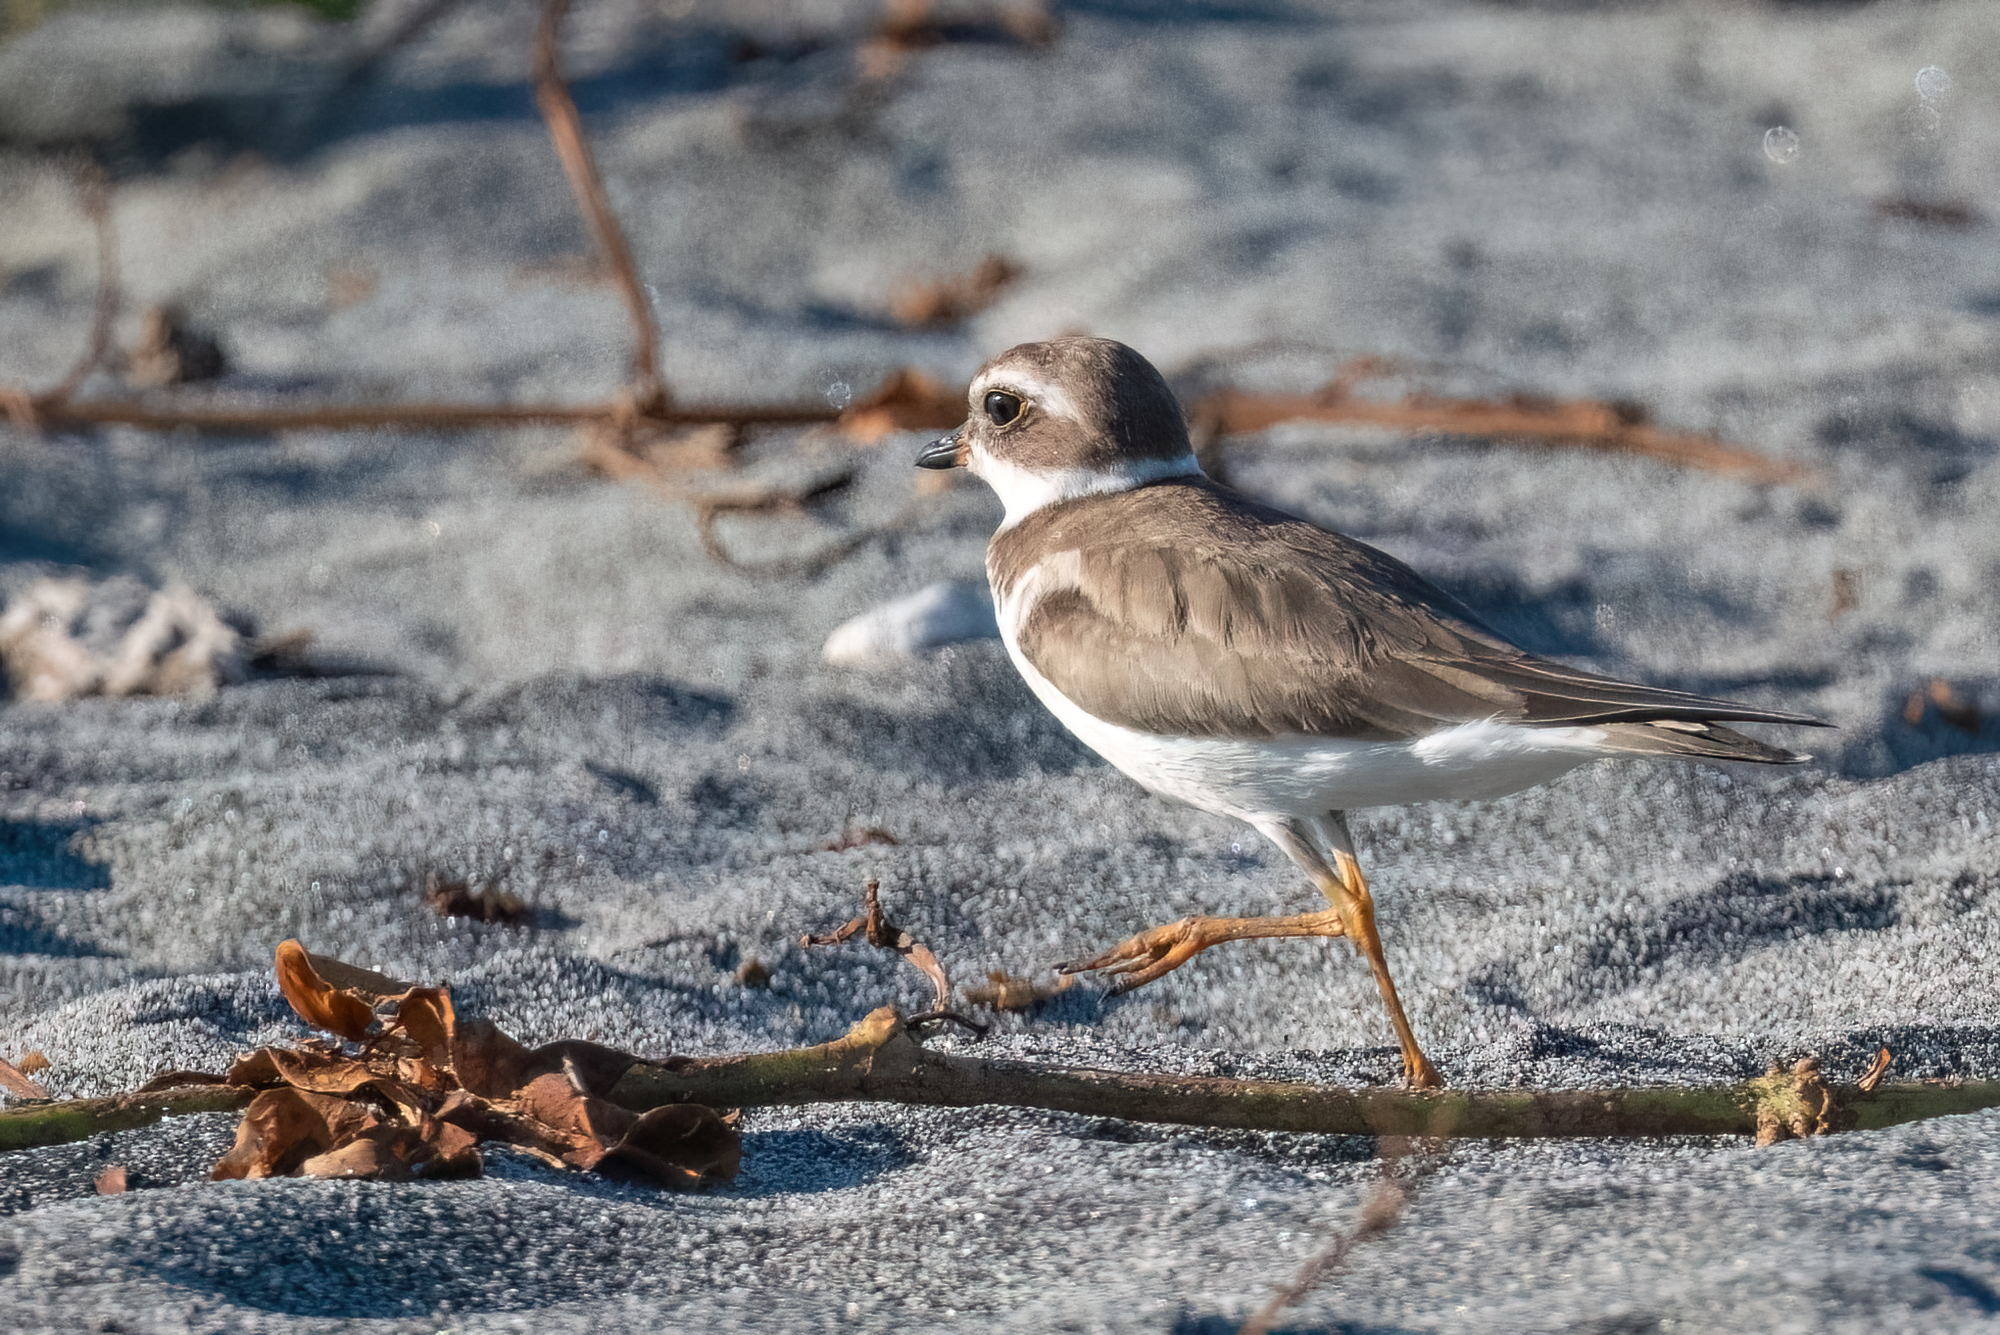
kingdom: Animalia
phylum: Chordata
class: Aves
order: Charadriiformes
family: Charadriidae
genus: Charadrius
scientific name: Charadrius semipalmatus
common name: Semipalmated plover
